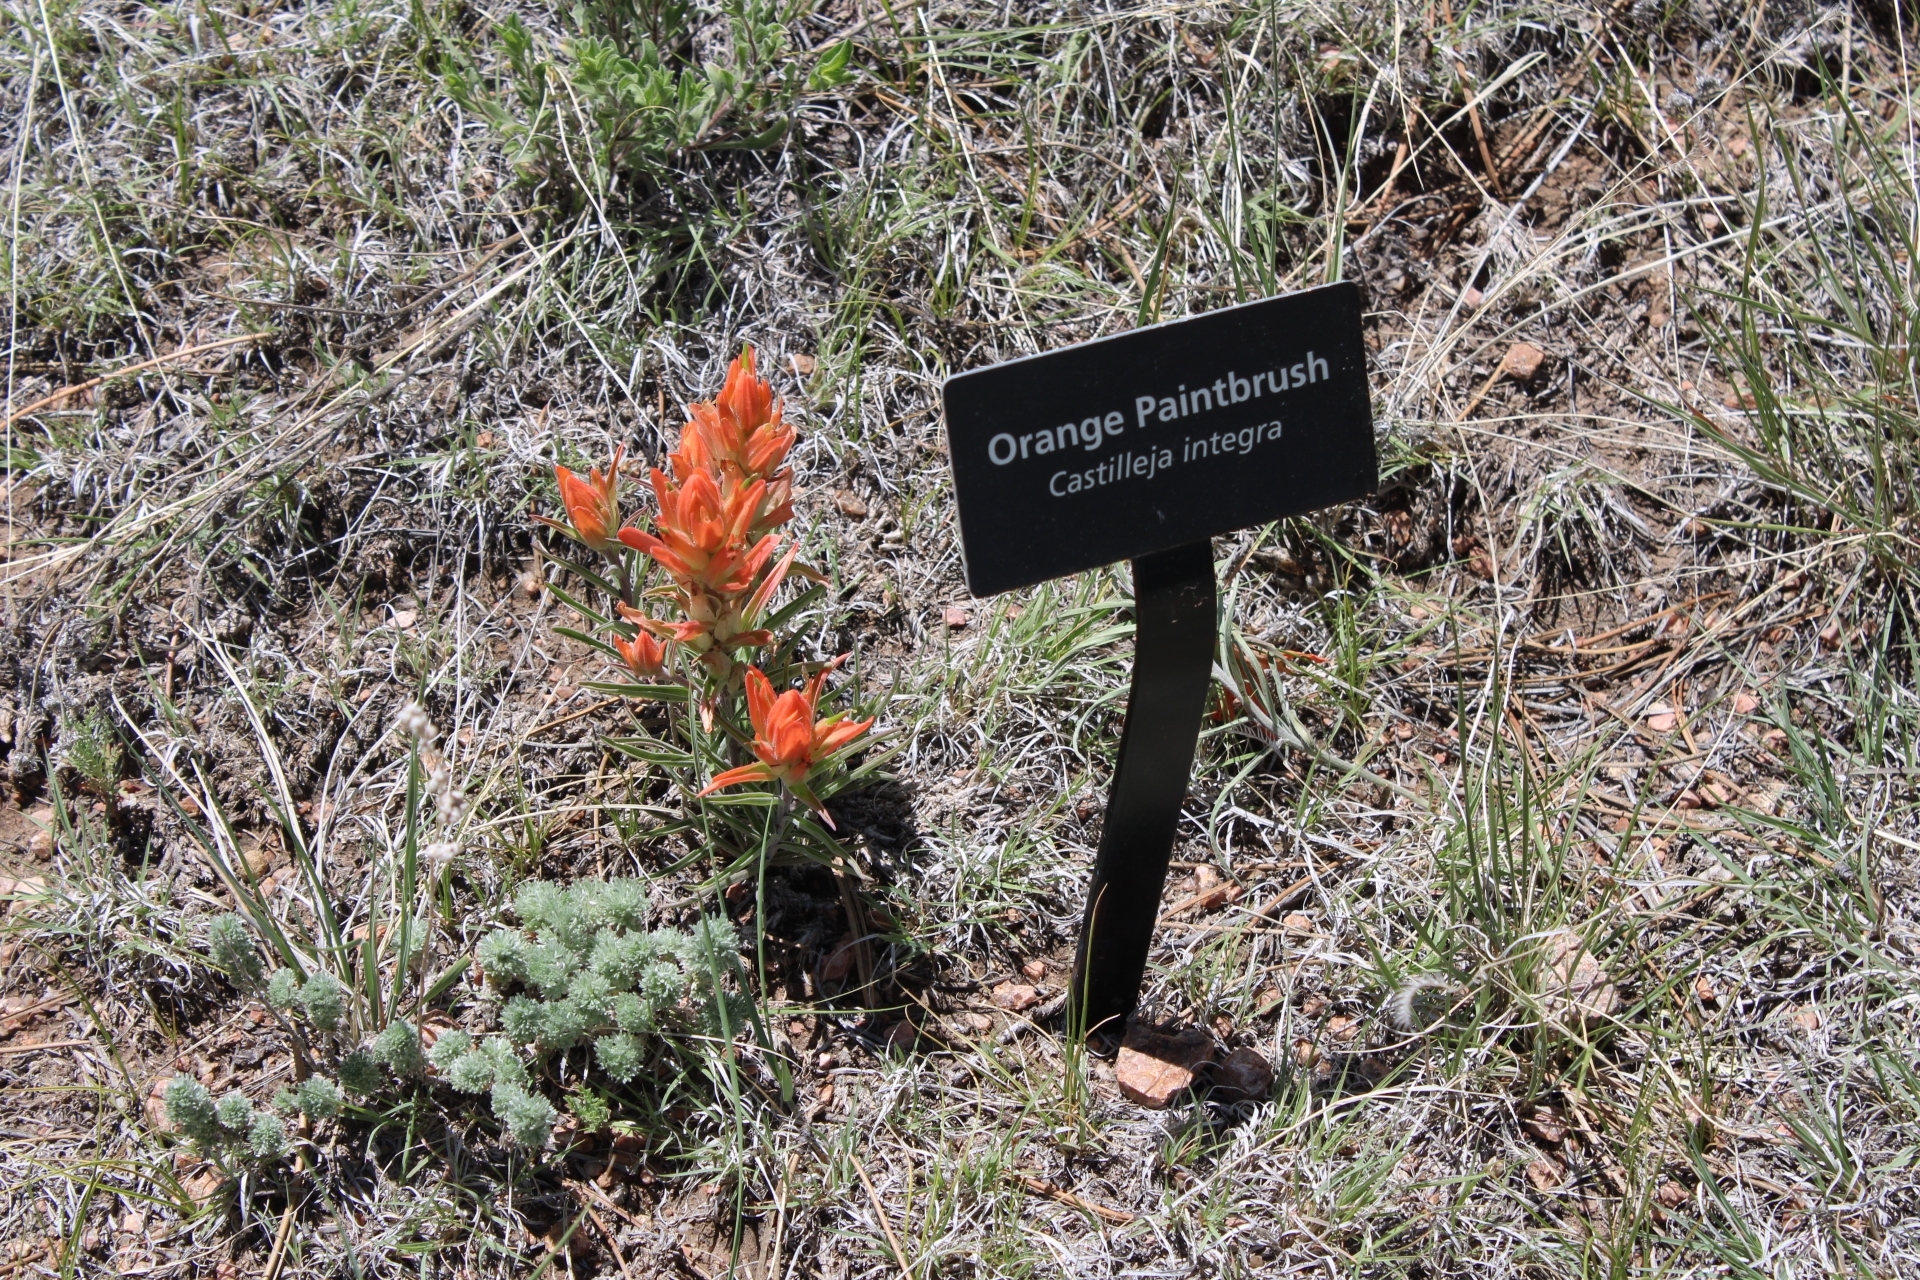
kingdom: Plantae
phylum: Tracheophyta
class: Magnoliopsida
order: Lamiales
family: Orobanchaceae
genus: Castilleja
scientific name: Castilleja integra
